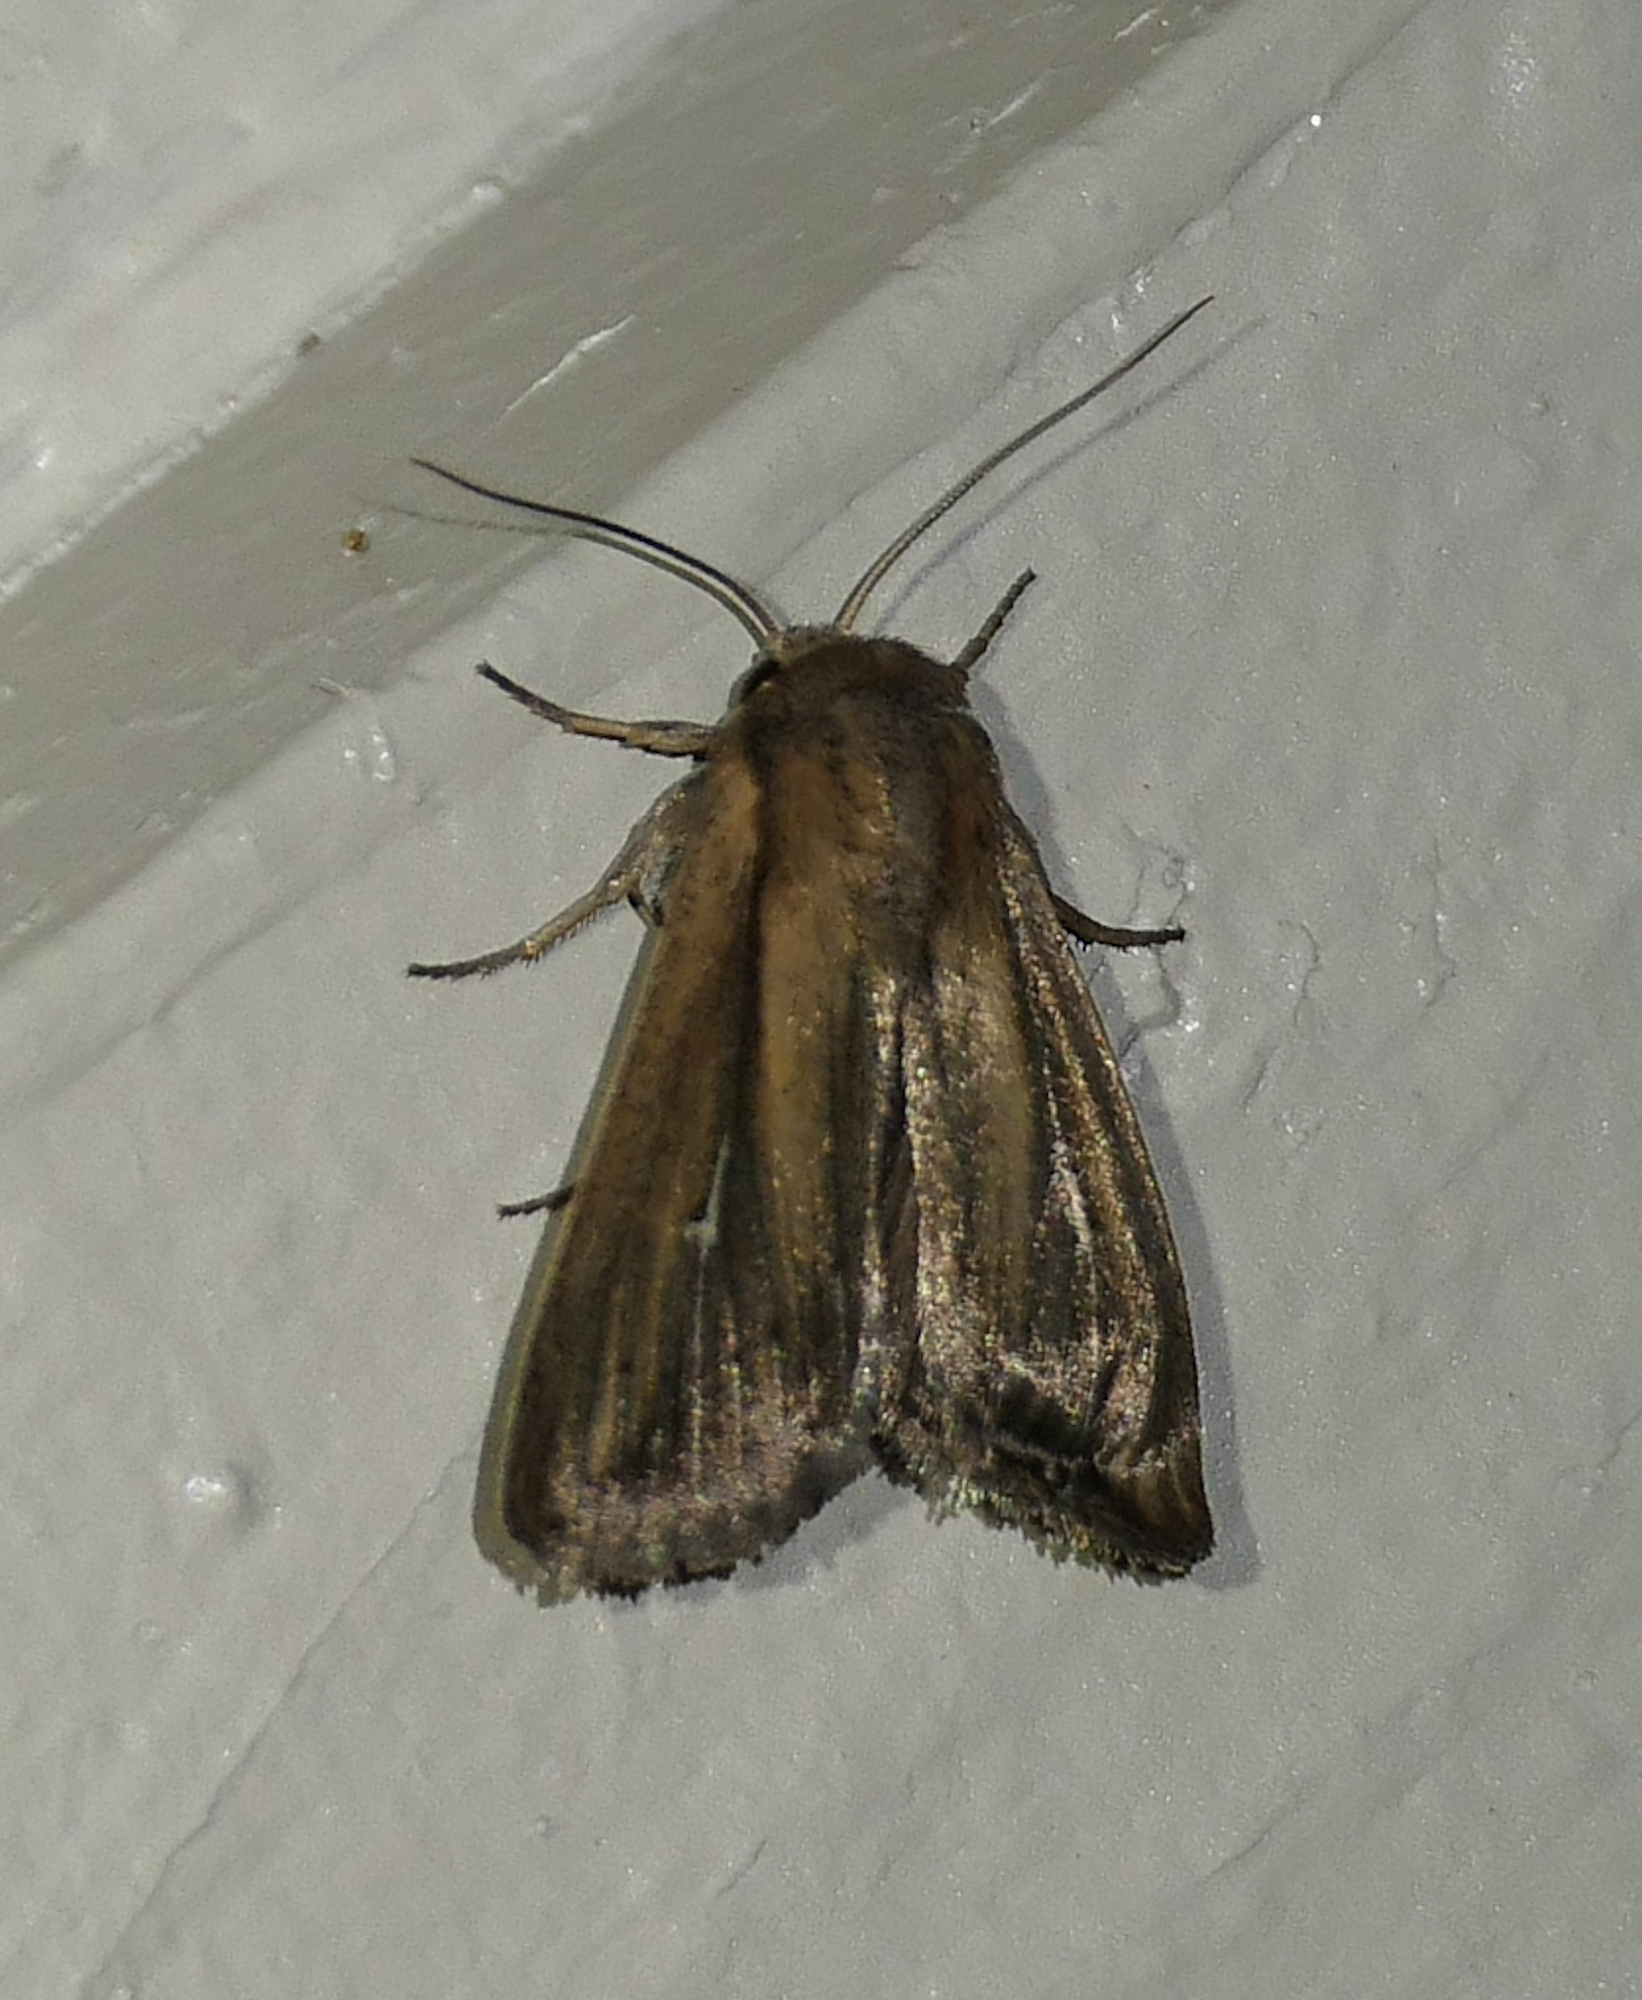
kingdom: Animalia
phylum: Arthropoda
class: Insecta
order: Lepidoptera
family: Noctuidae
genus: Leucania
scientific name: Leucania imperfecta
